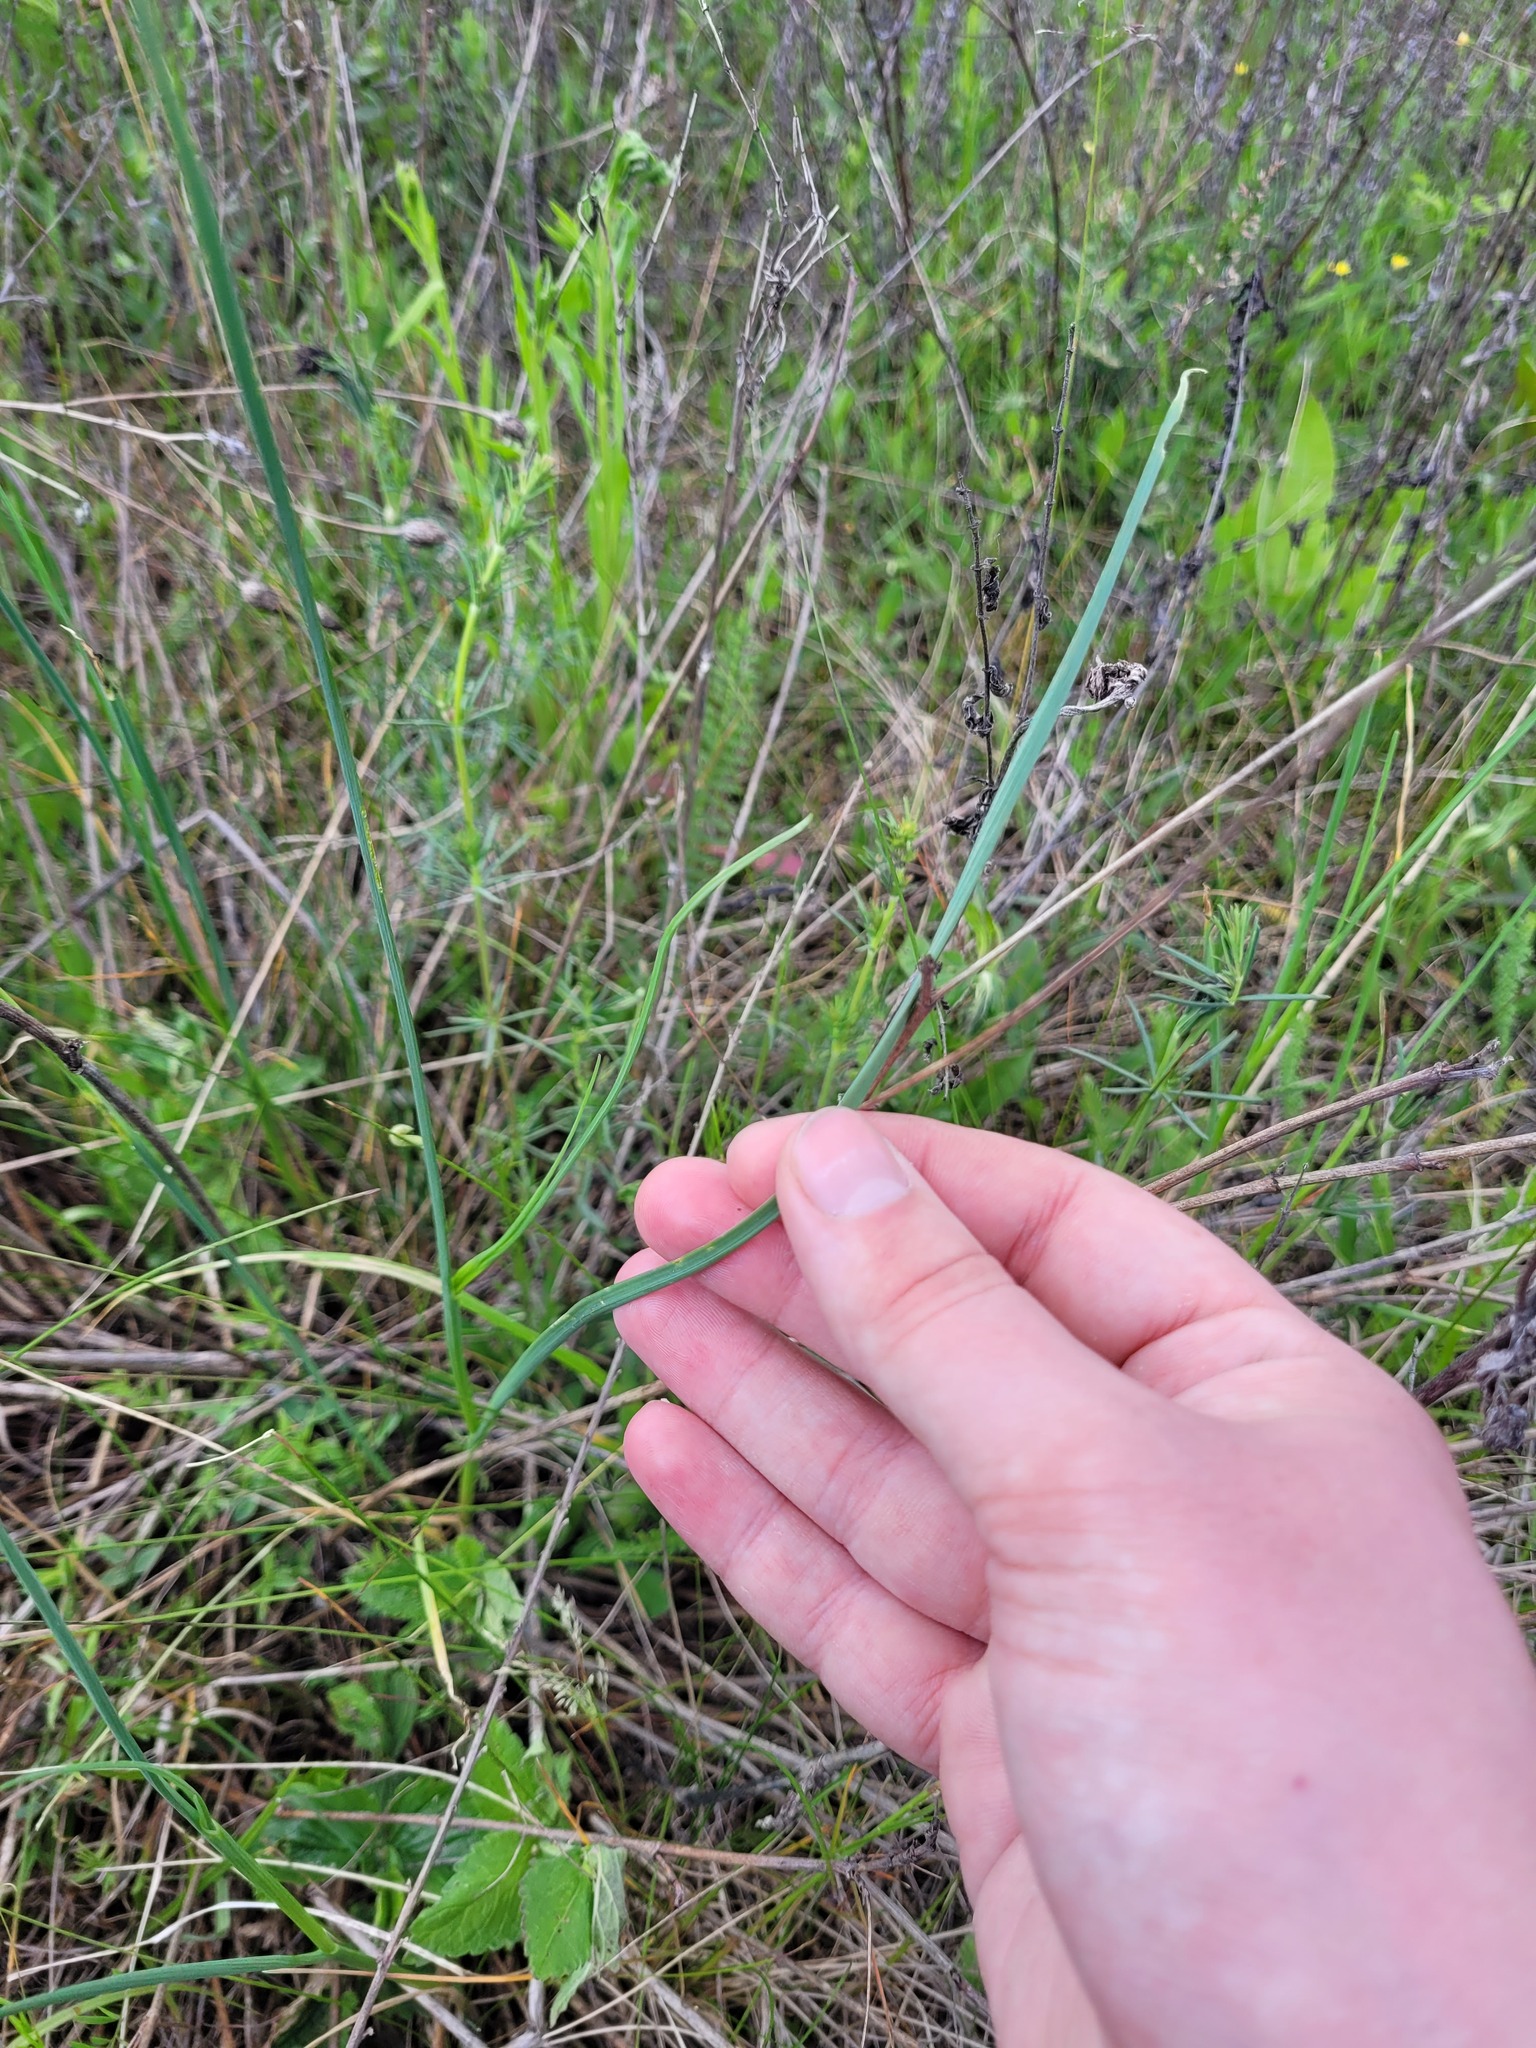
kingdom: Plantae
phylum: Tracheophyta
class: Liliopsida
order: Asparagales
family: Amaryllidaceae
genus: Allium
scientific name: Allium oleraceum
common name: Field garlic
